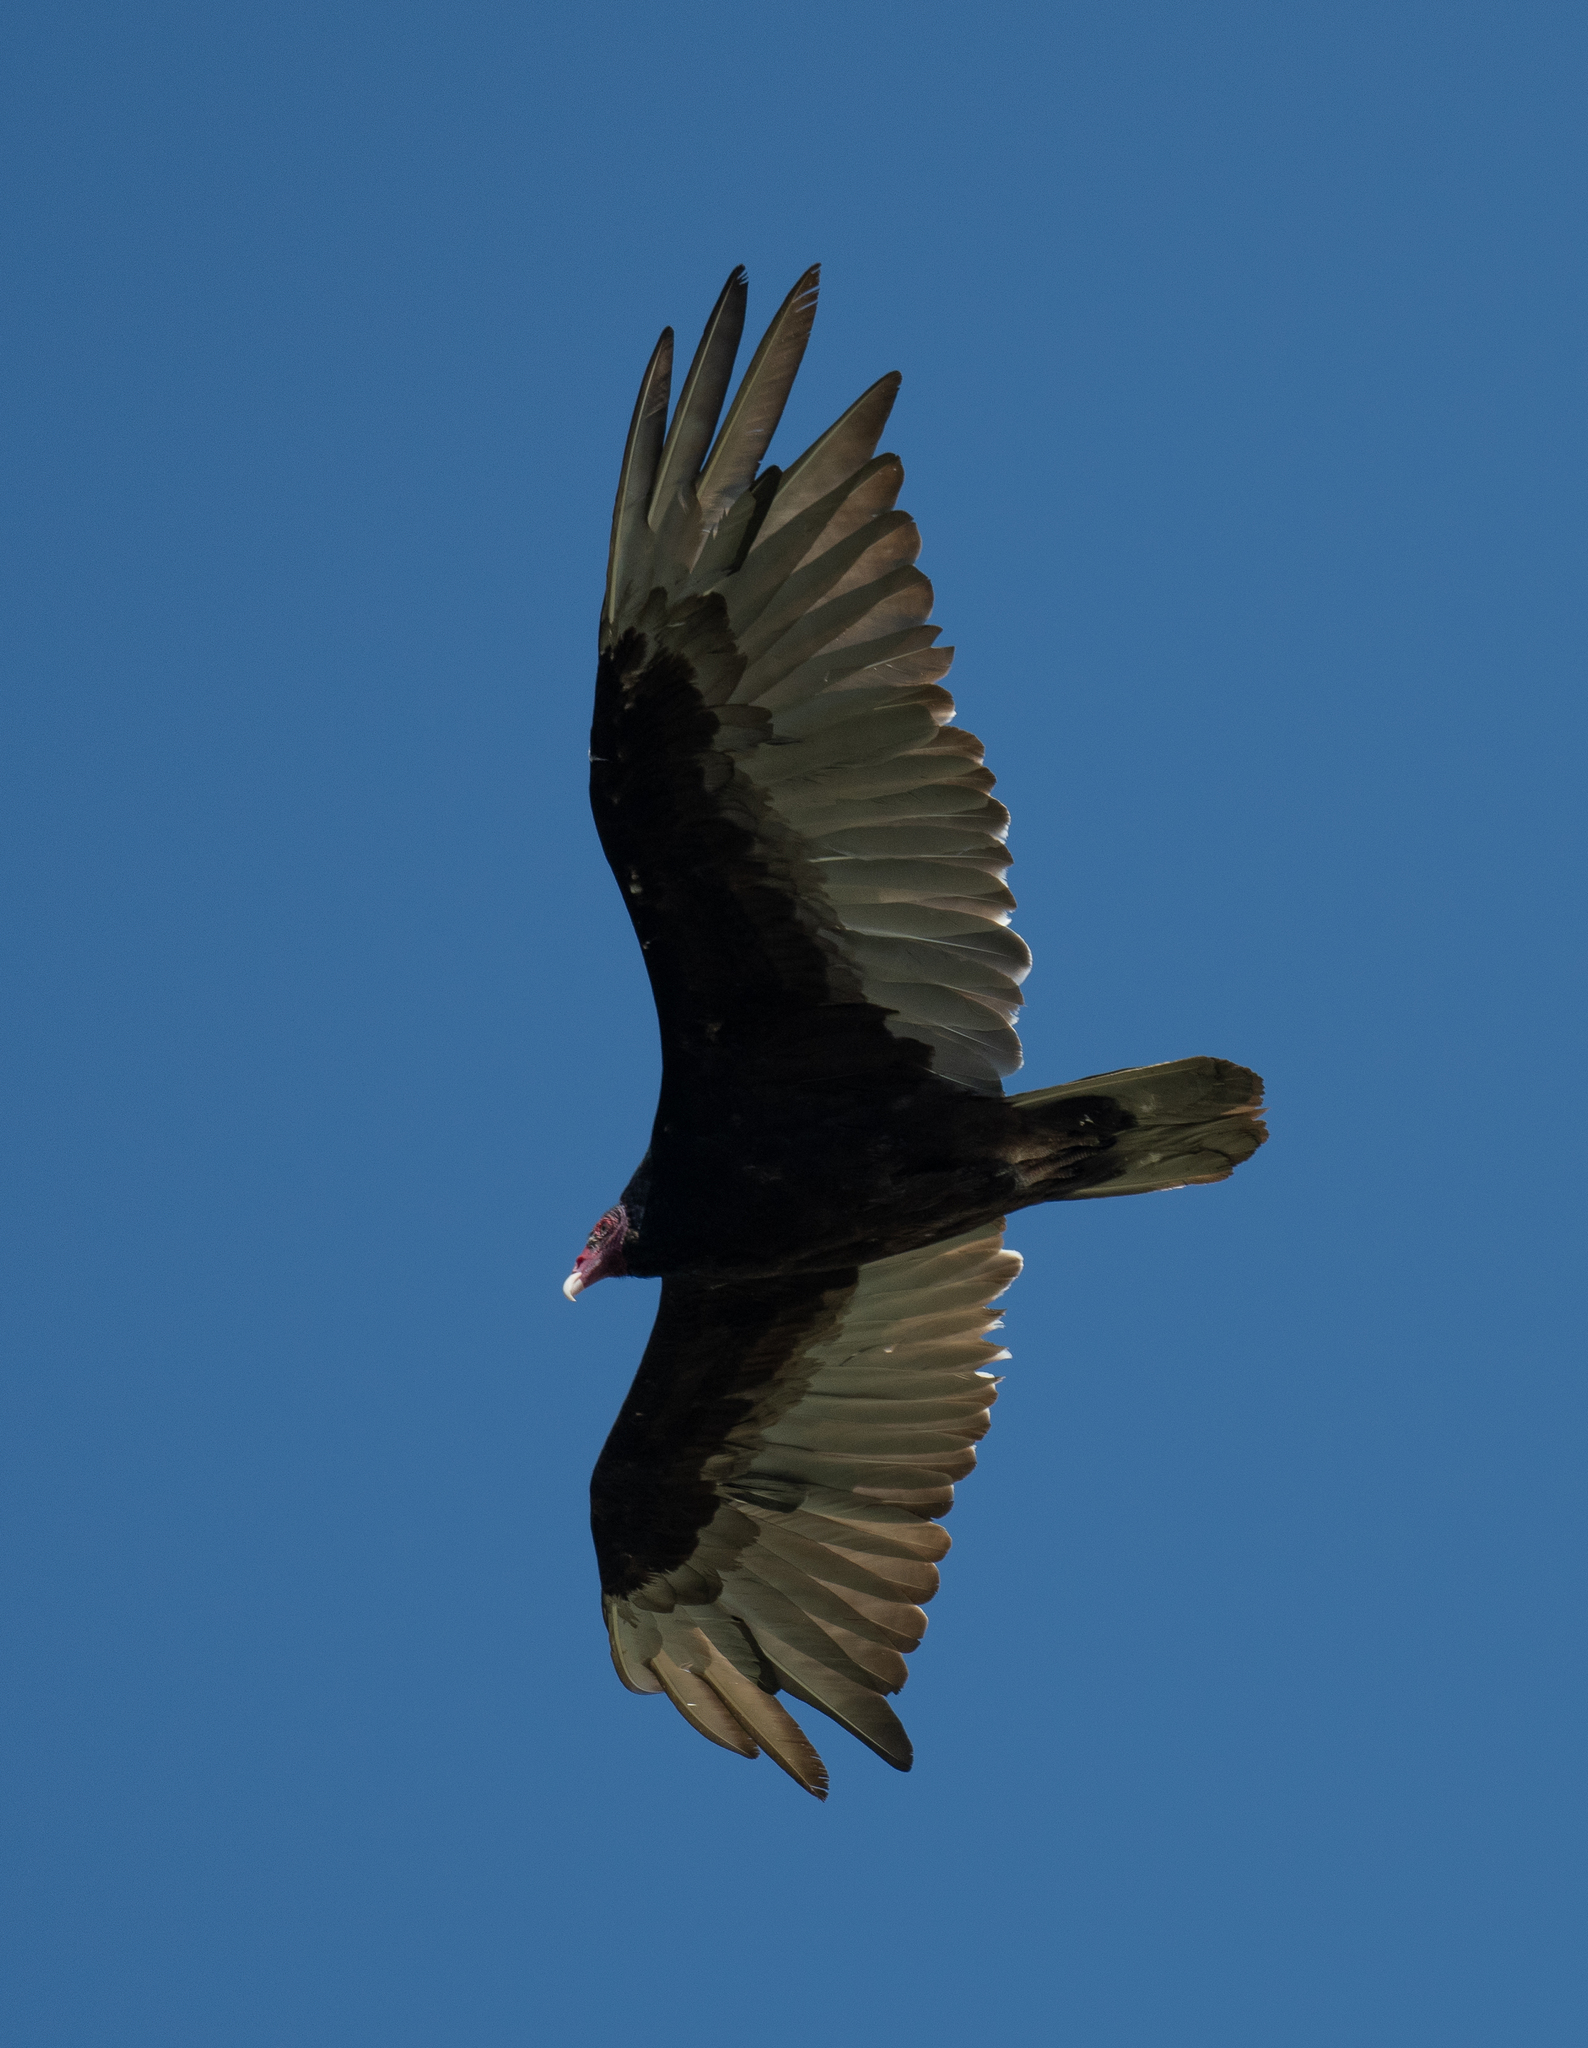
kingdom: Animalia
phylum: Chordata
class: Aves
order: Accipitriformes
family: Cathartidae
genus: Cathartes
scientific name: Cathartes aura
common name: Turkey vulture
